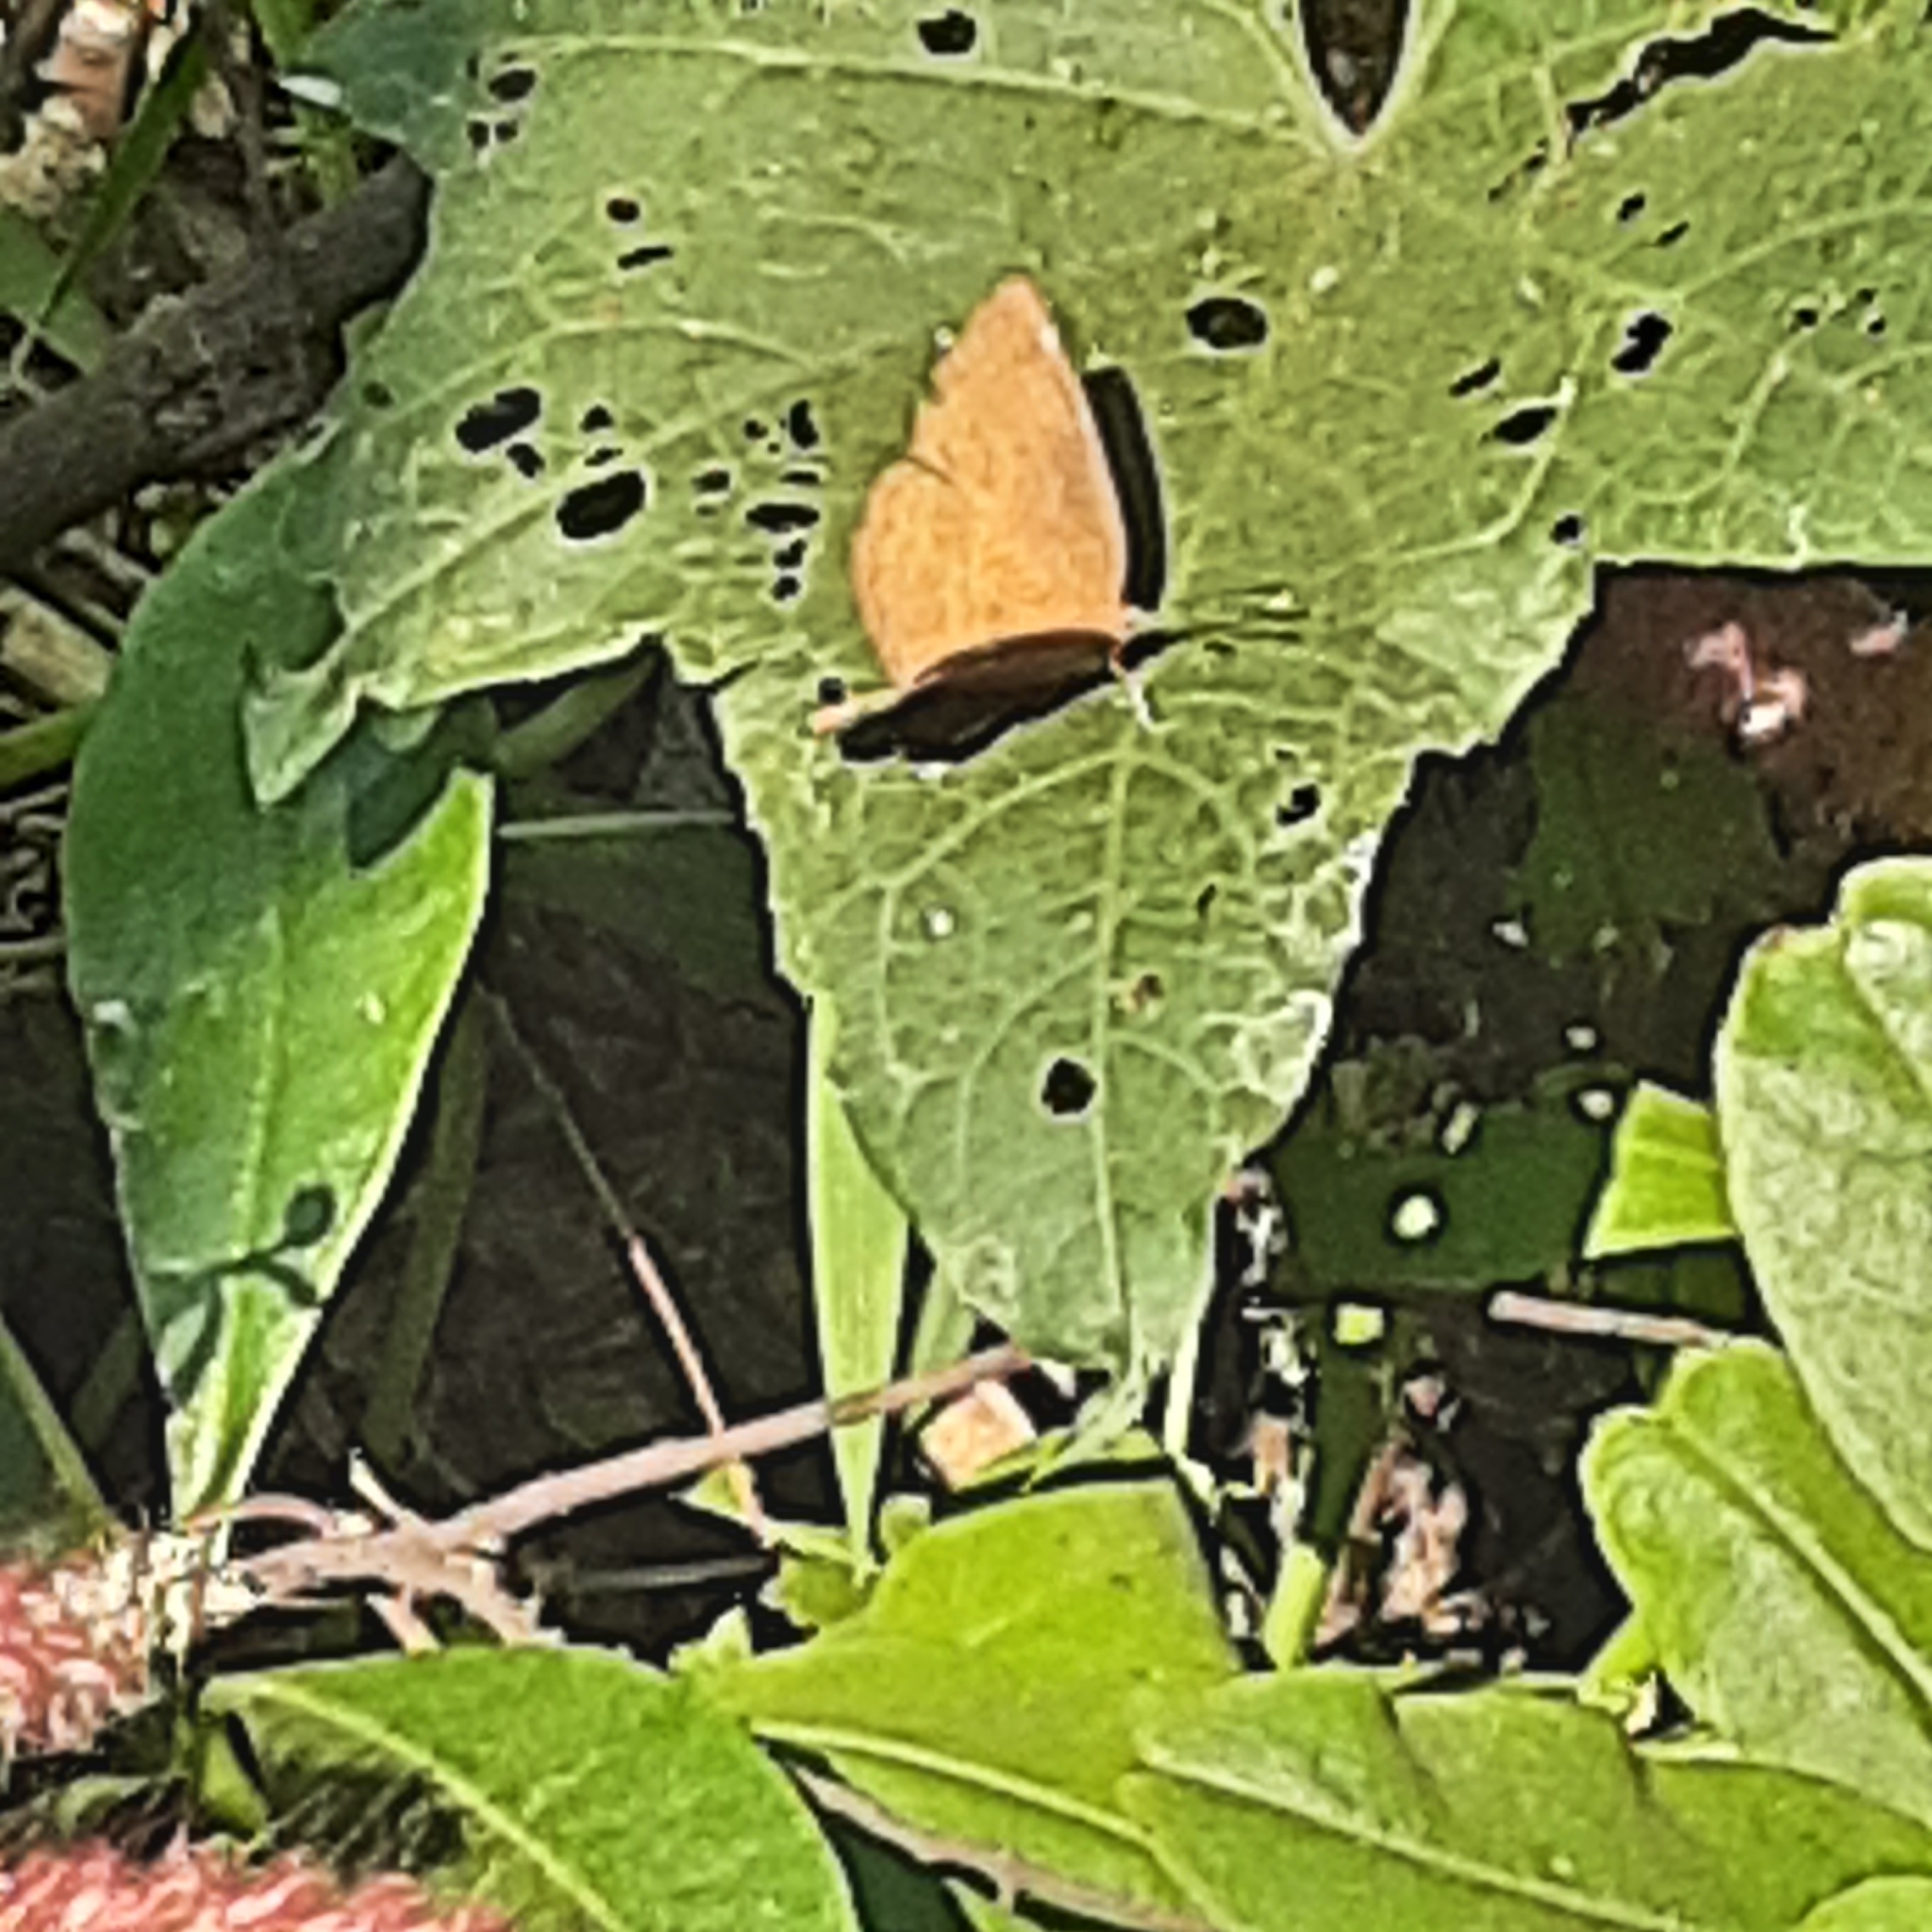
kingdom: Animalia
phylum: Arthropoda
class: Insecta
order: Lepidoptera
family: Nymphalidae
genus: Ariadne
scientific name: Ariadne merione
